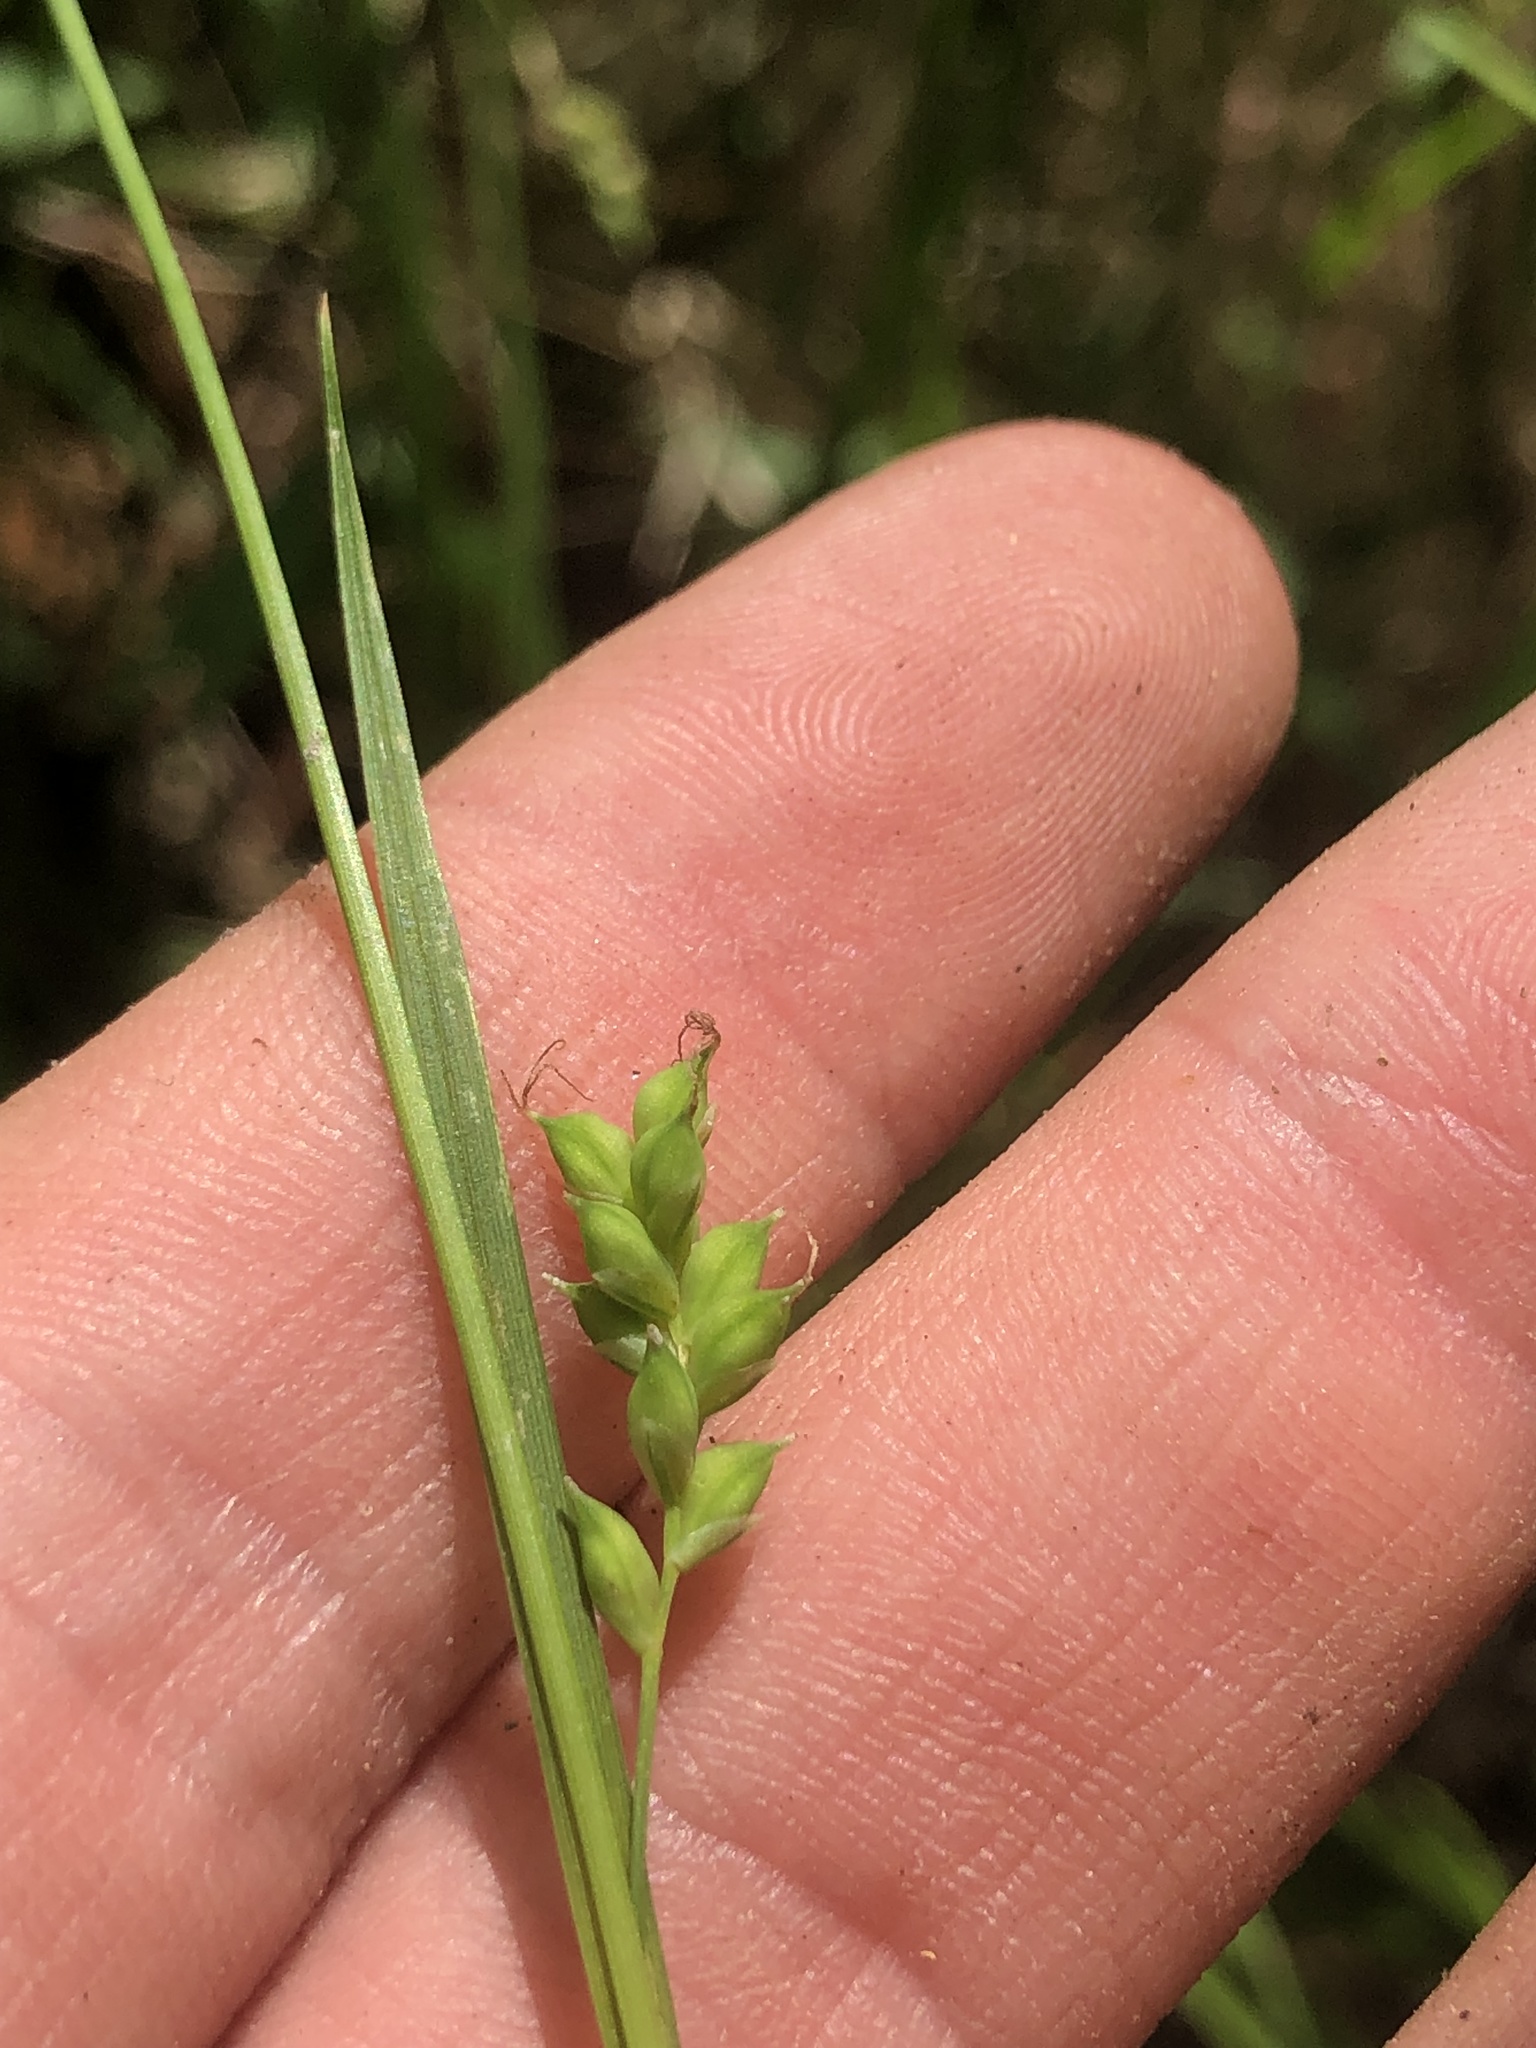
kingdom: Plantae
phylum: Tracheophyta
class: Liliopsida
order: Poales
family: Cyperaceae
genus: Carex
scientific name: Carex styloflexa
